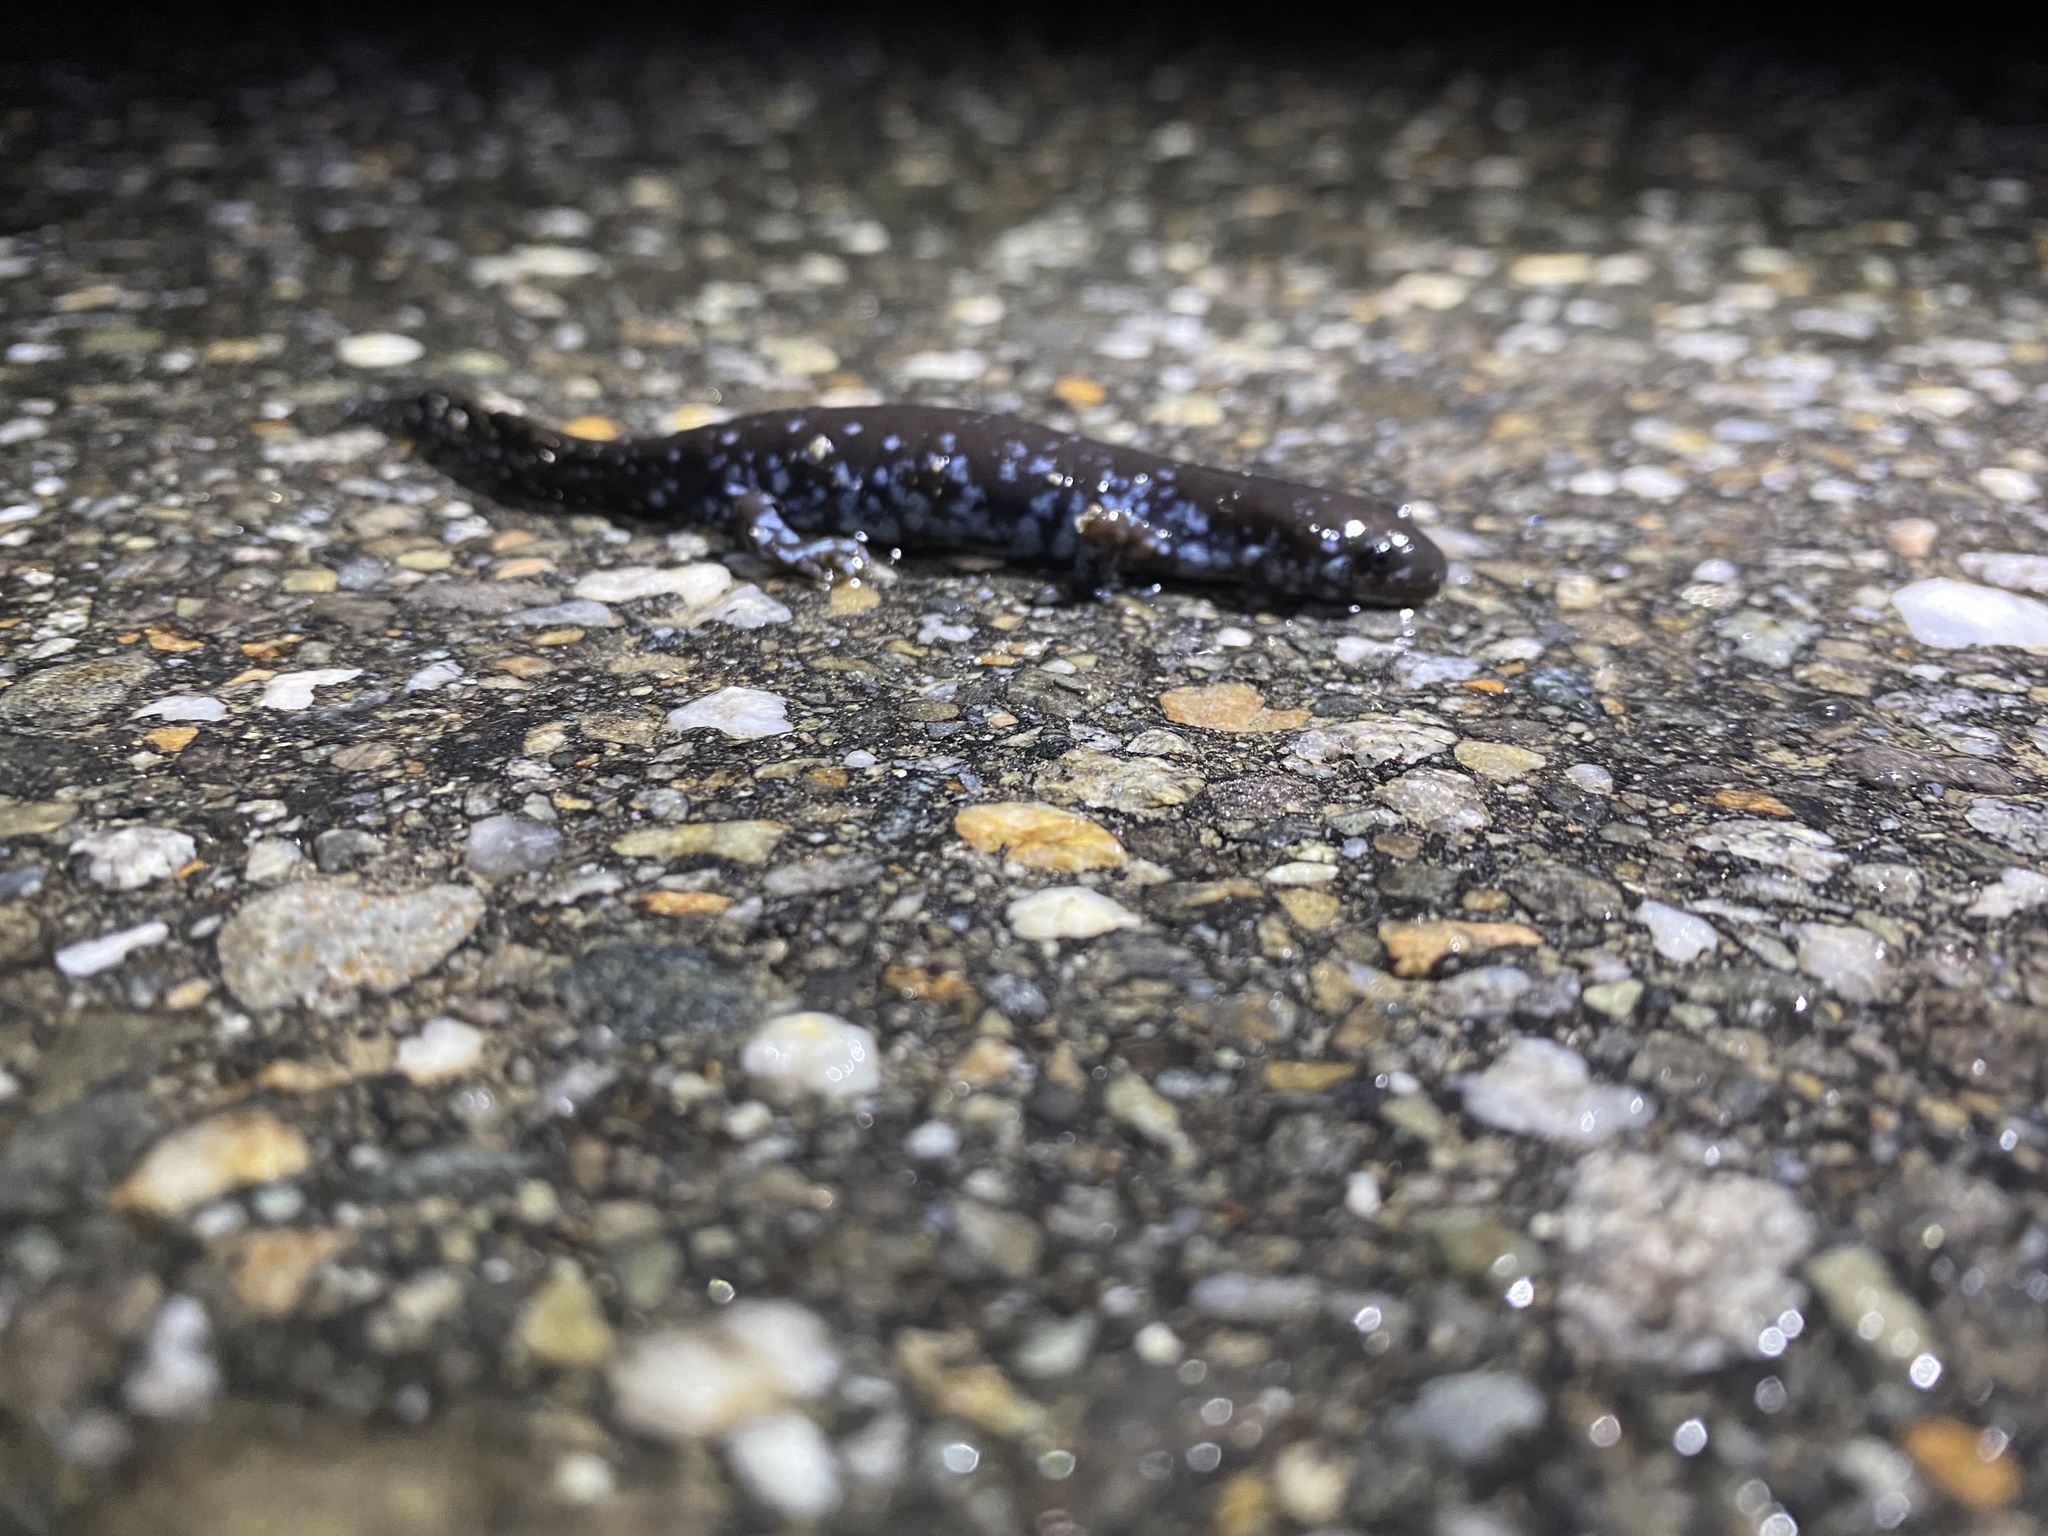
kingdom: Animalia
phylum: Chordata
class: Amphibia
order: Caudata
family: Ambystomatidae
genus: Ambystoma
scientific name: Ambystoma laterale
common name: Blue-spotted salamander
